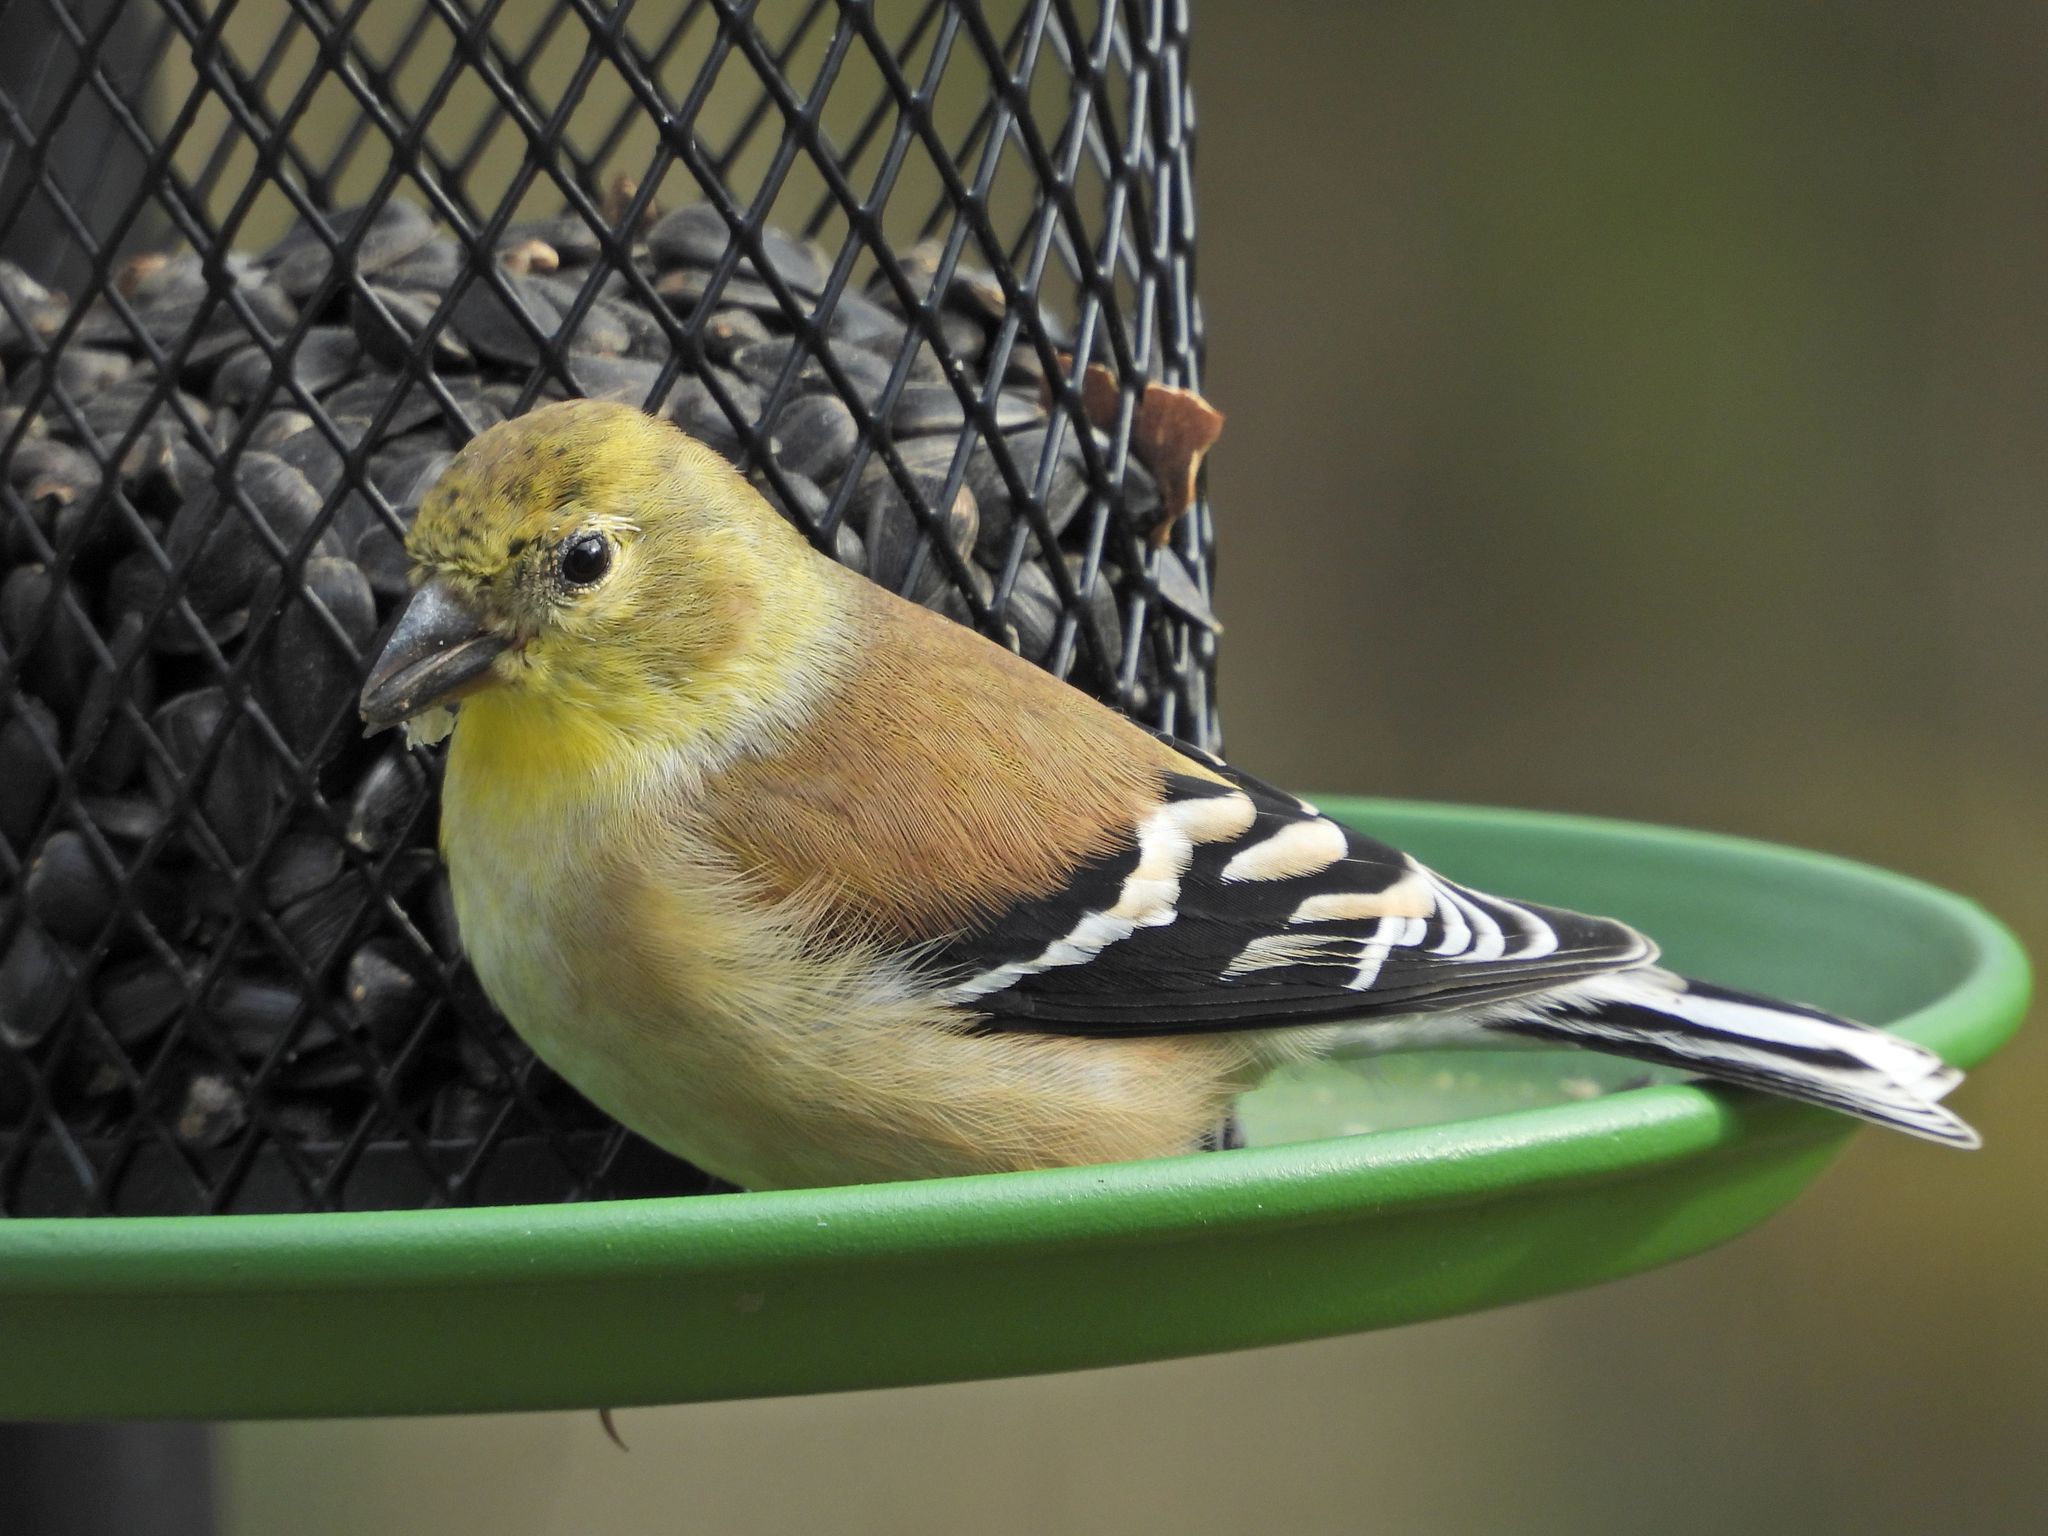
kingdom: Animalia
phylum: Chordata
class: Aves
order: Passeriformes
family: Fringillidae
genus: Spinus
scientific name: Spinus tristis
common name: American goldfinch
